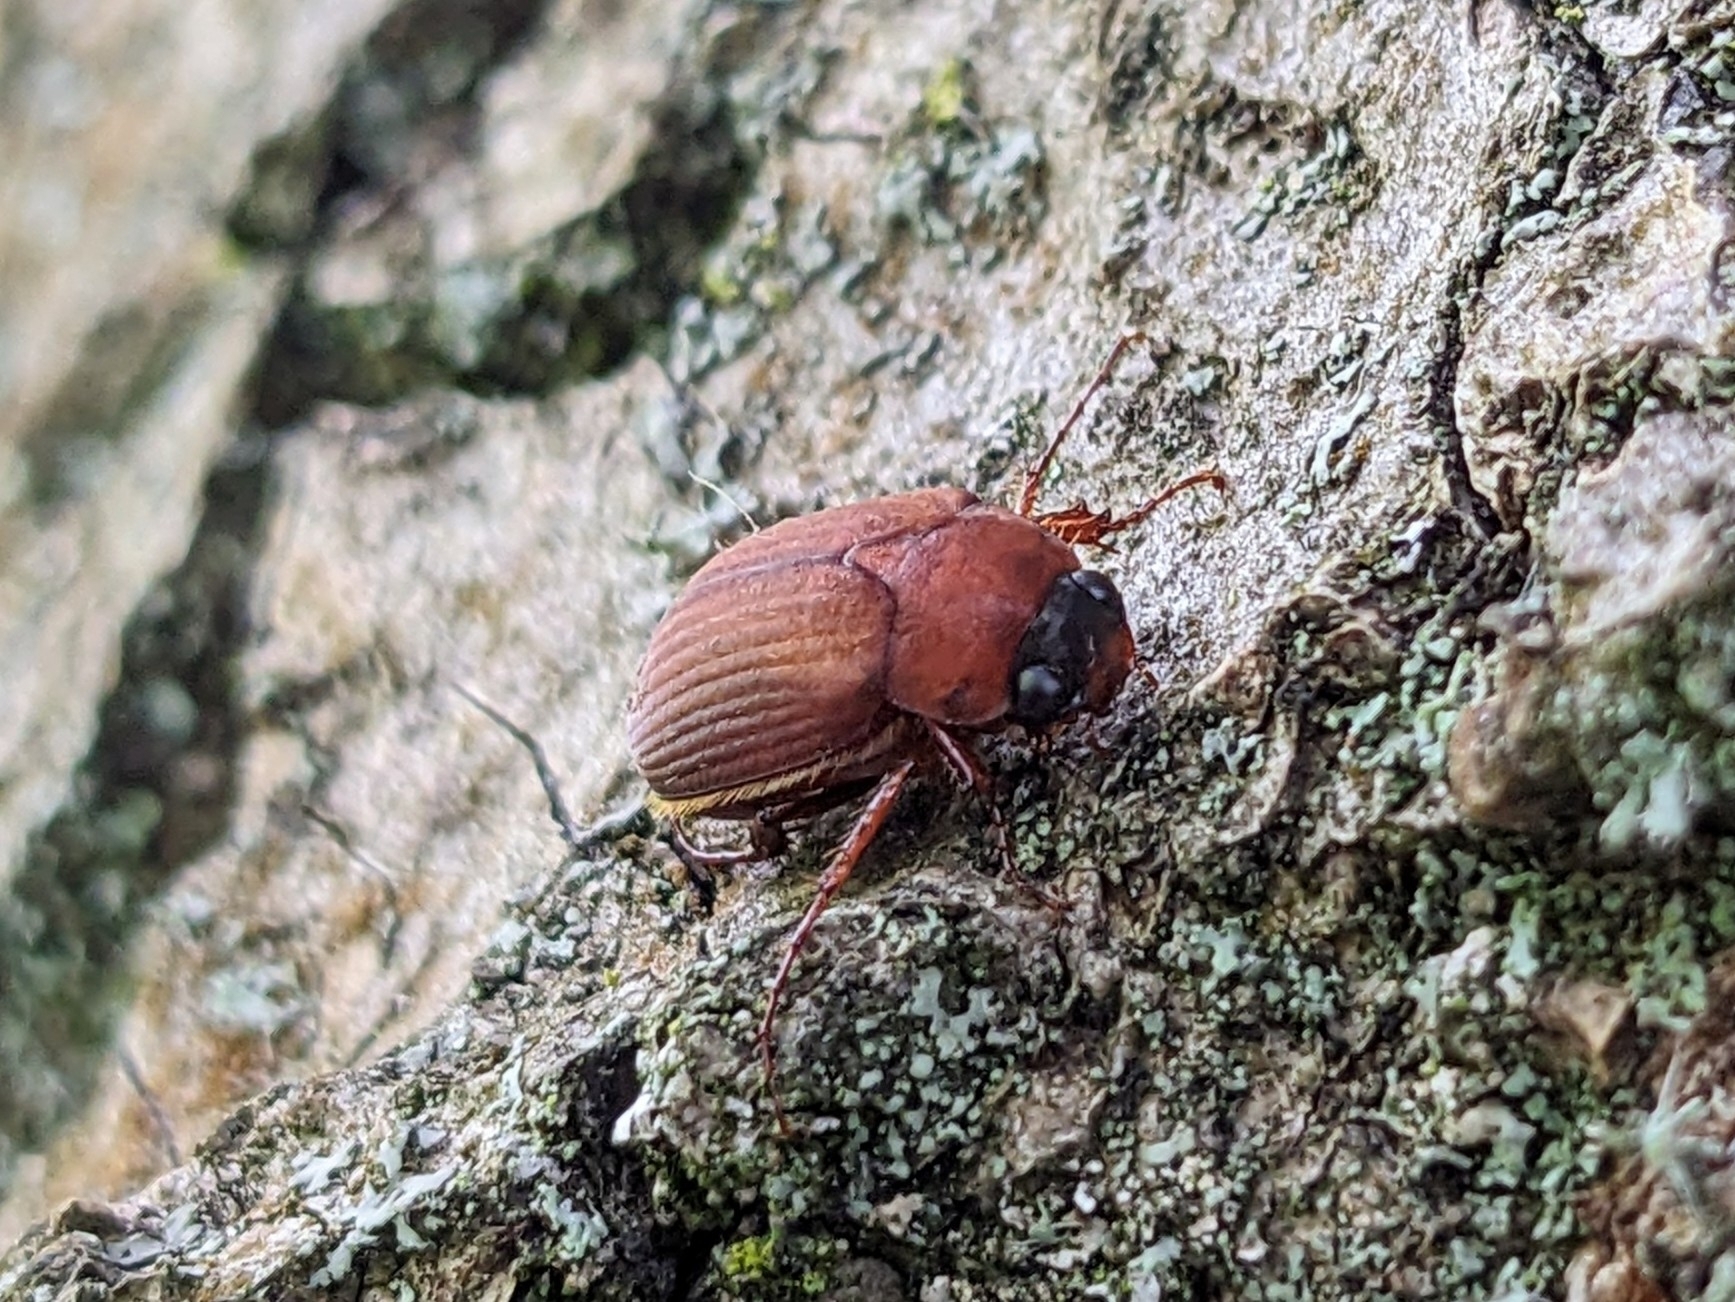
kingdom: Animalia
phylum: Arthropoda
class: Insecta
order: Coleoptera
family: Scarabaeidae
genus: Serica
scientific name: Serica brunnea
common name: Brown chafer
